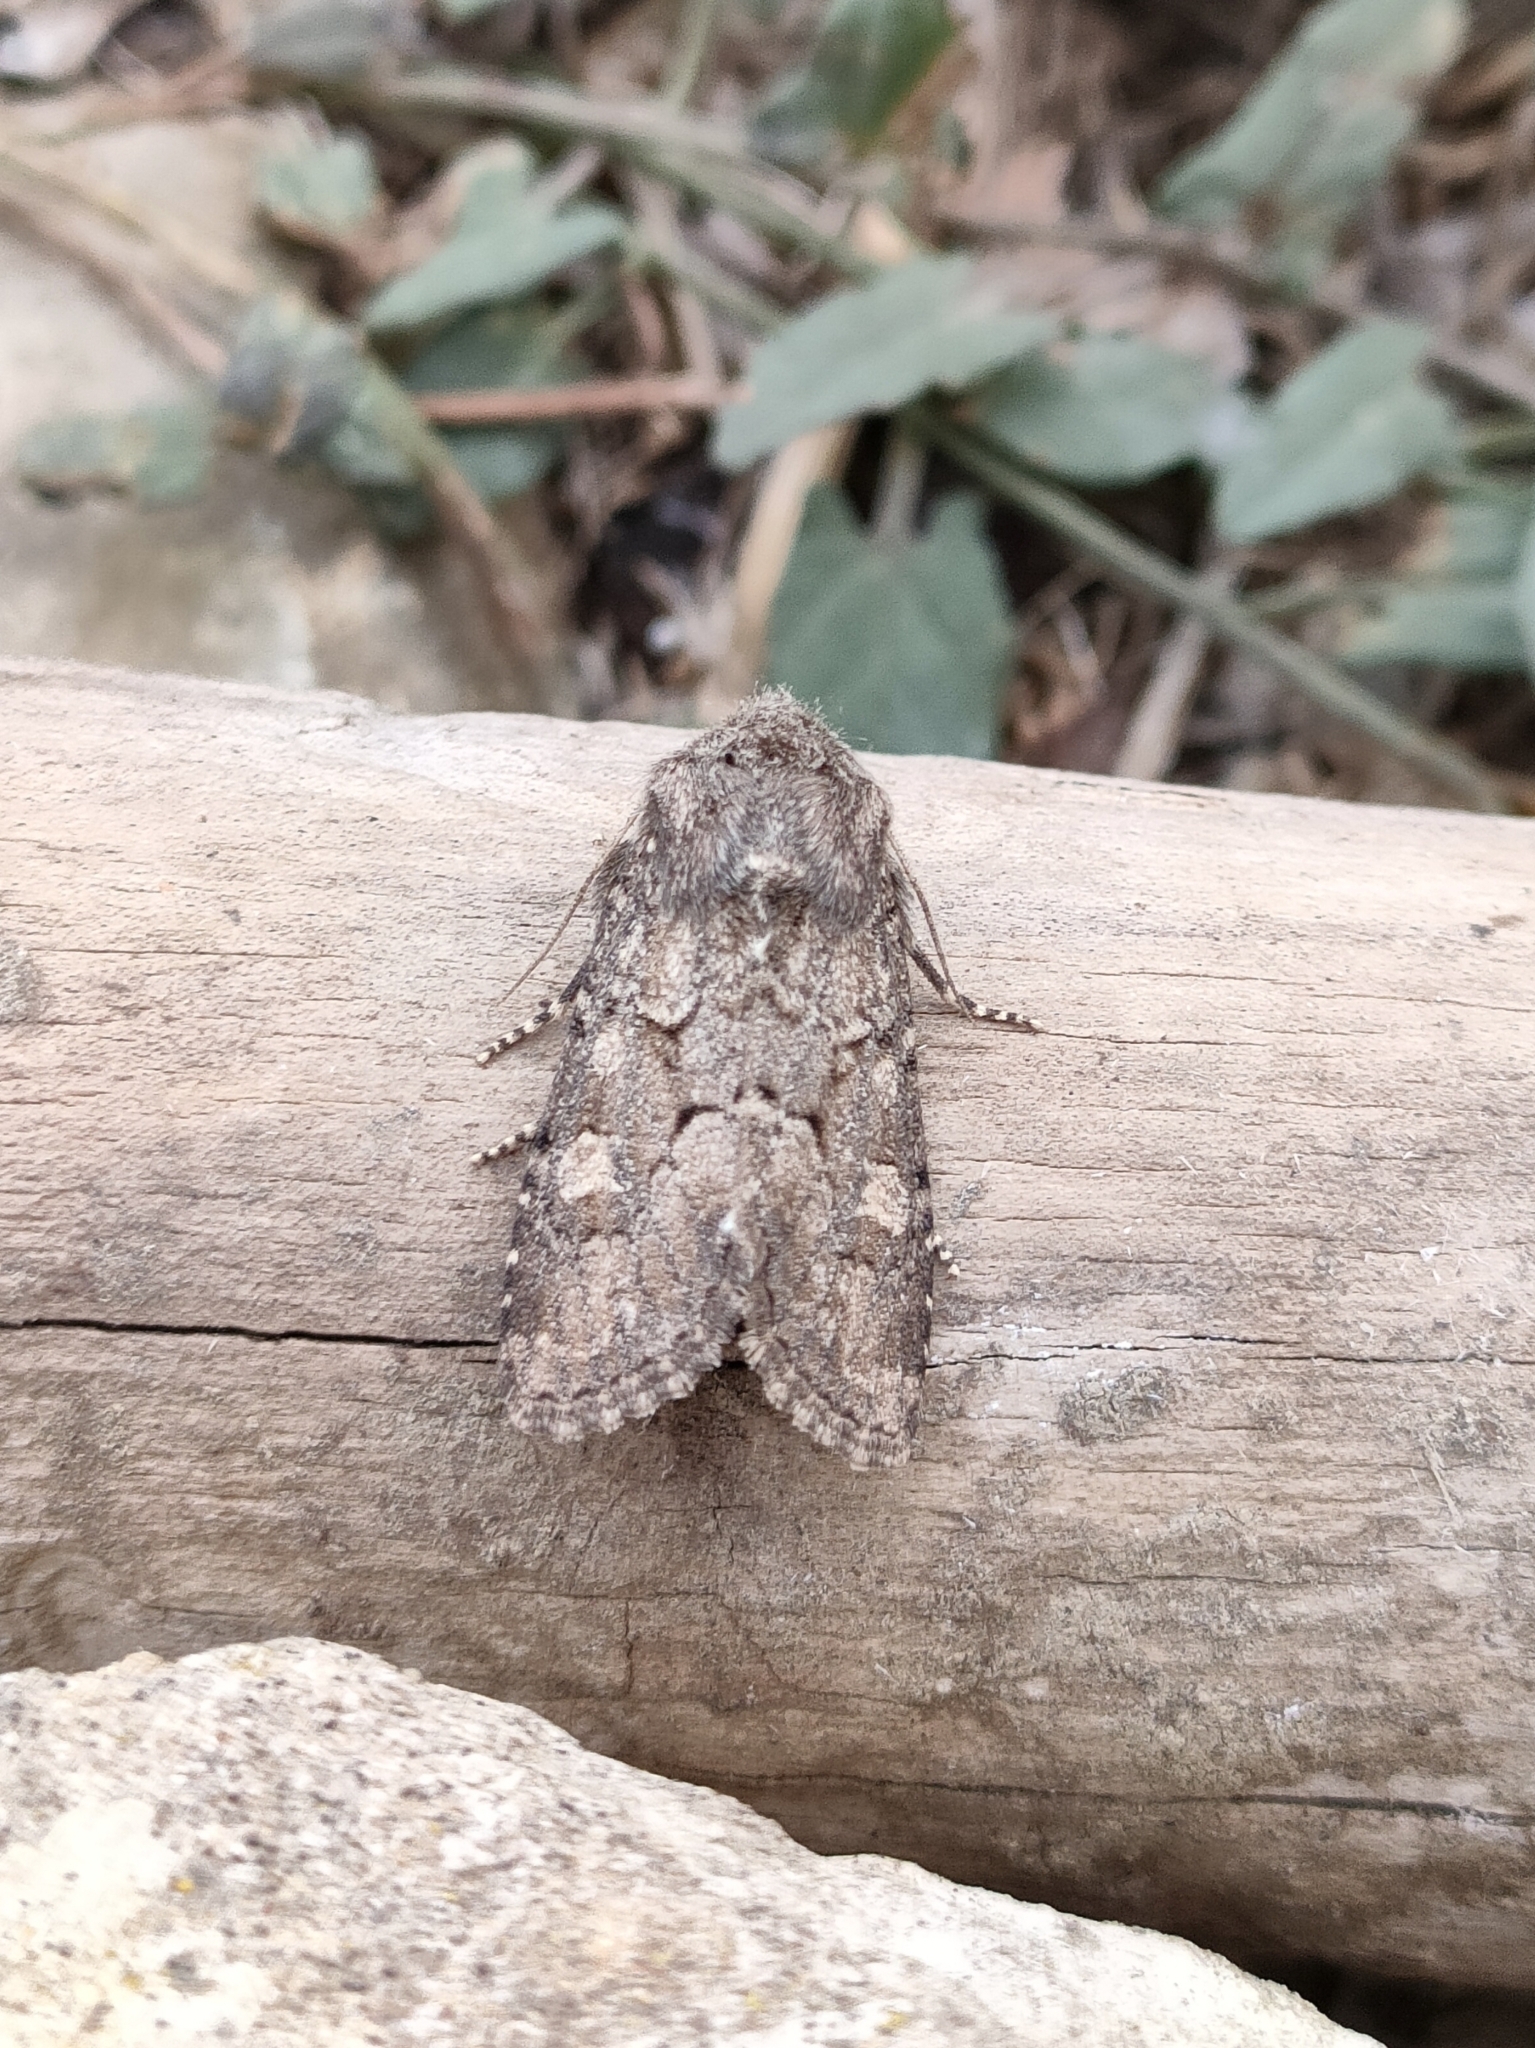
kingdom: Animalia
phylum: Arthropoda
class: Insecta
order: Lepidoptera
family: Noctuidae
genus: Luperina
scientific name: Luperina testacea
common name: Flounced rustic
